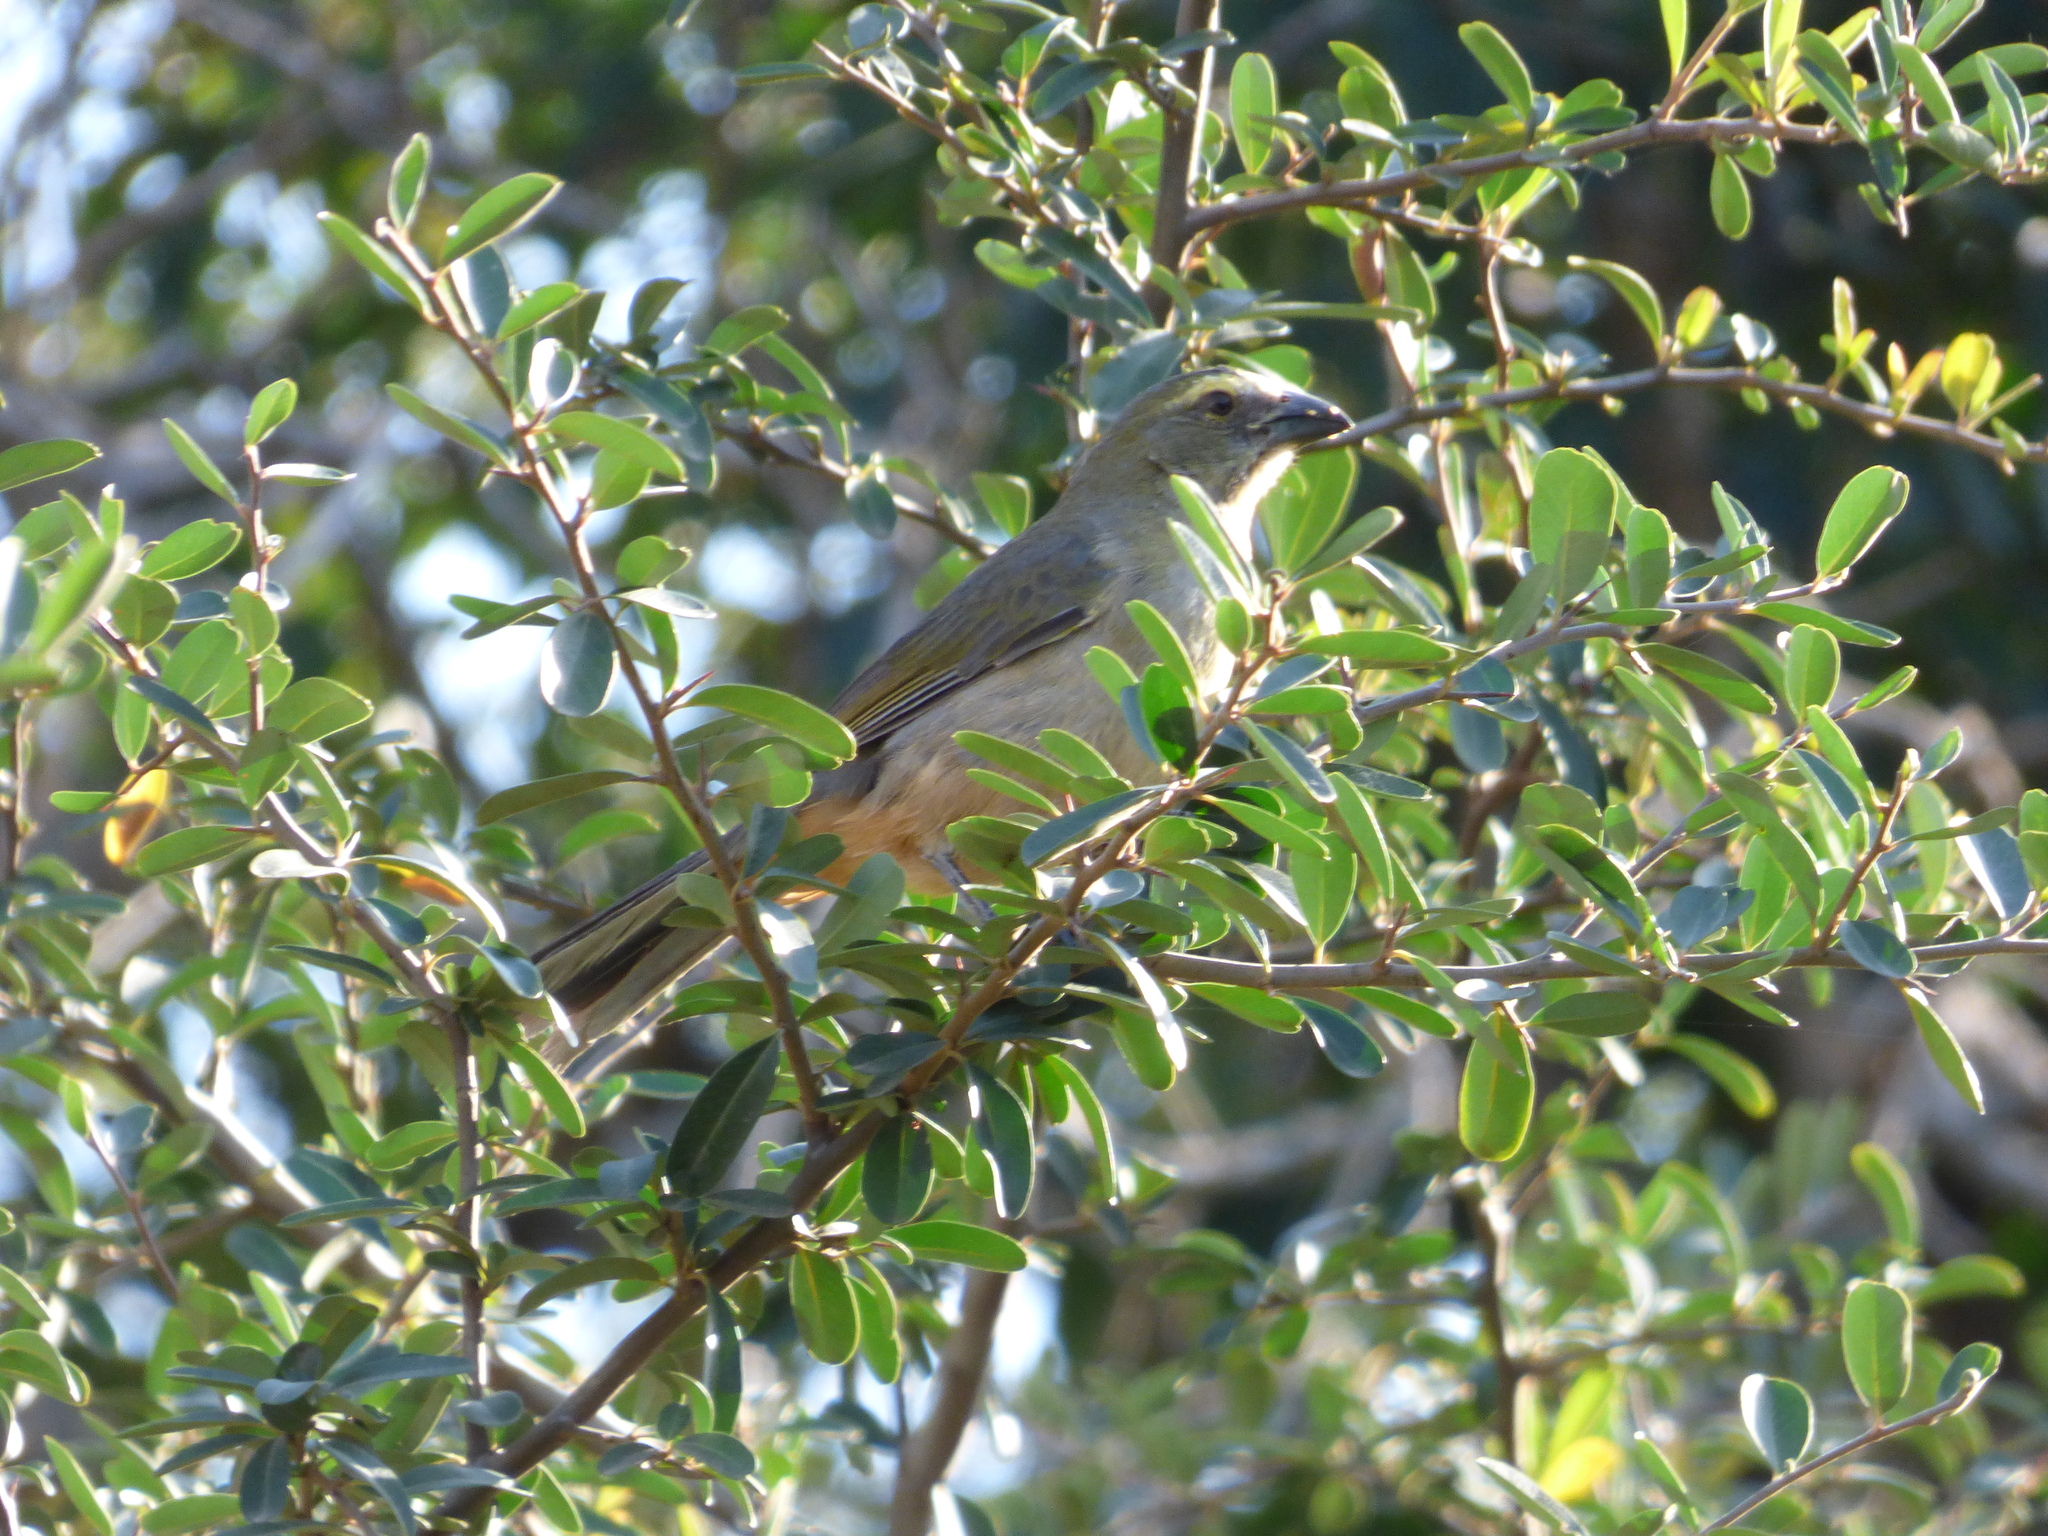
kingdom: Animalia
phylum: Chordata
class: Aves
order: Passeriformes
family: Thraupidae
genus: Saltator
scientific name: Saltator coerulescens
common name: Grayish saltator
